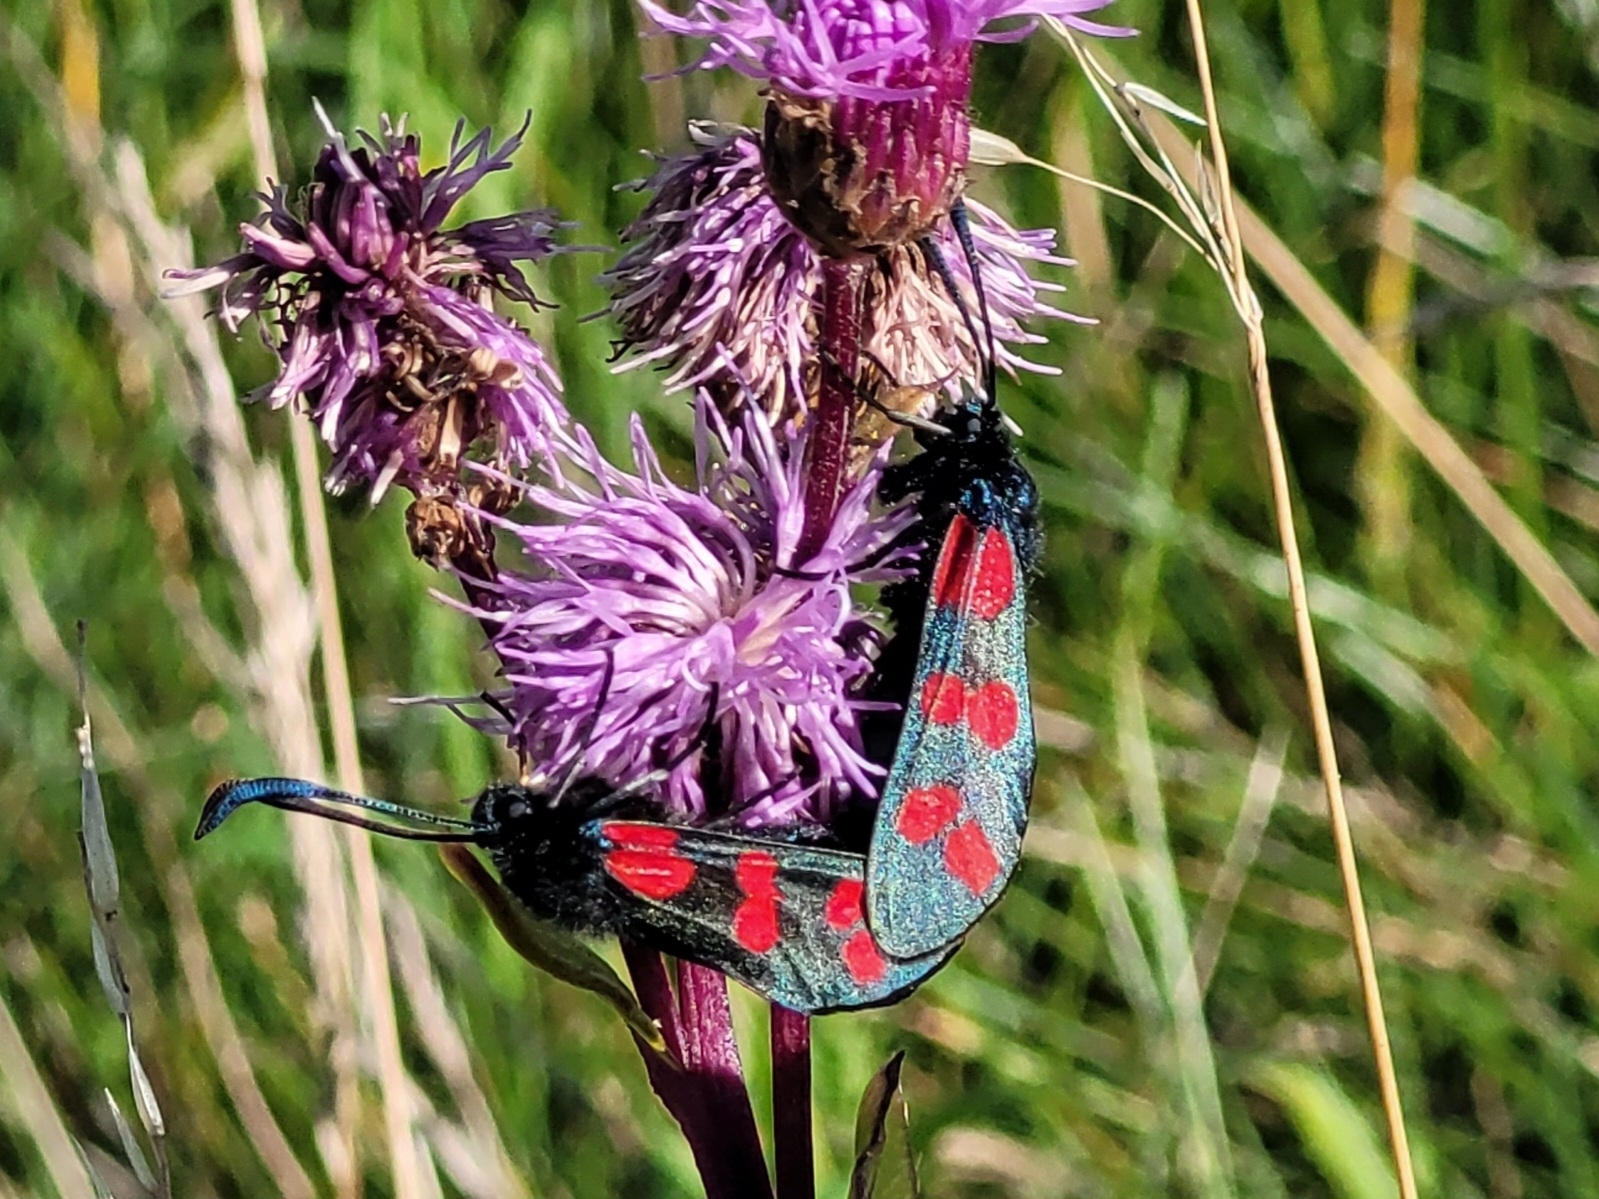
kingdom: Animalia
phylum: Arthropoda
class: Insecta
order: Lepidoptera
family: Zygaenidae
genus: Zygaena
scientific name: Zygaena filipendulae
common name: Six-spot burnet
